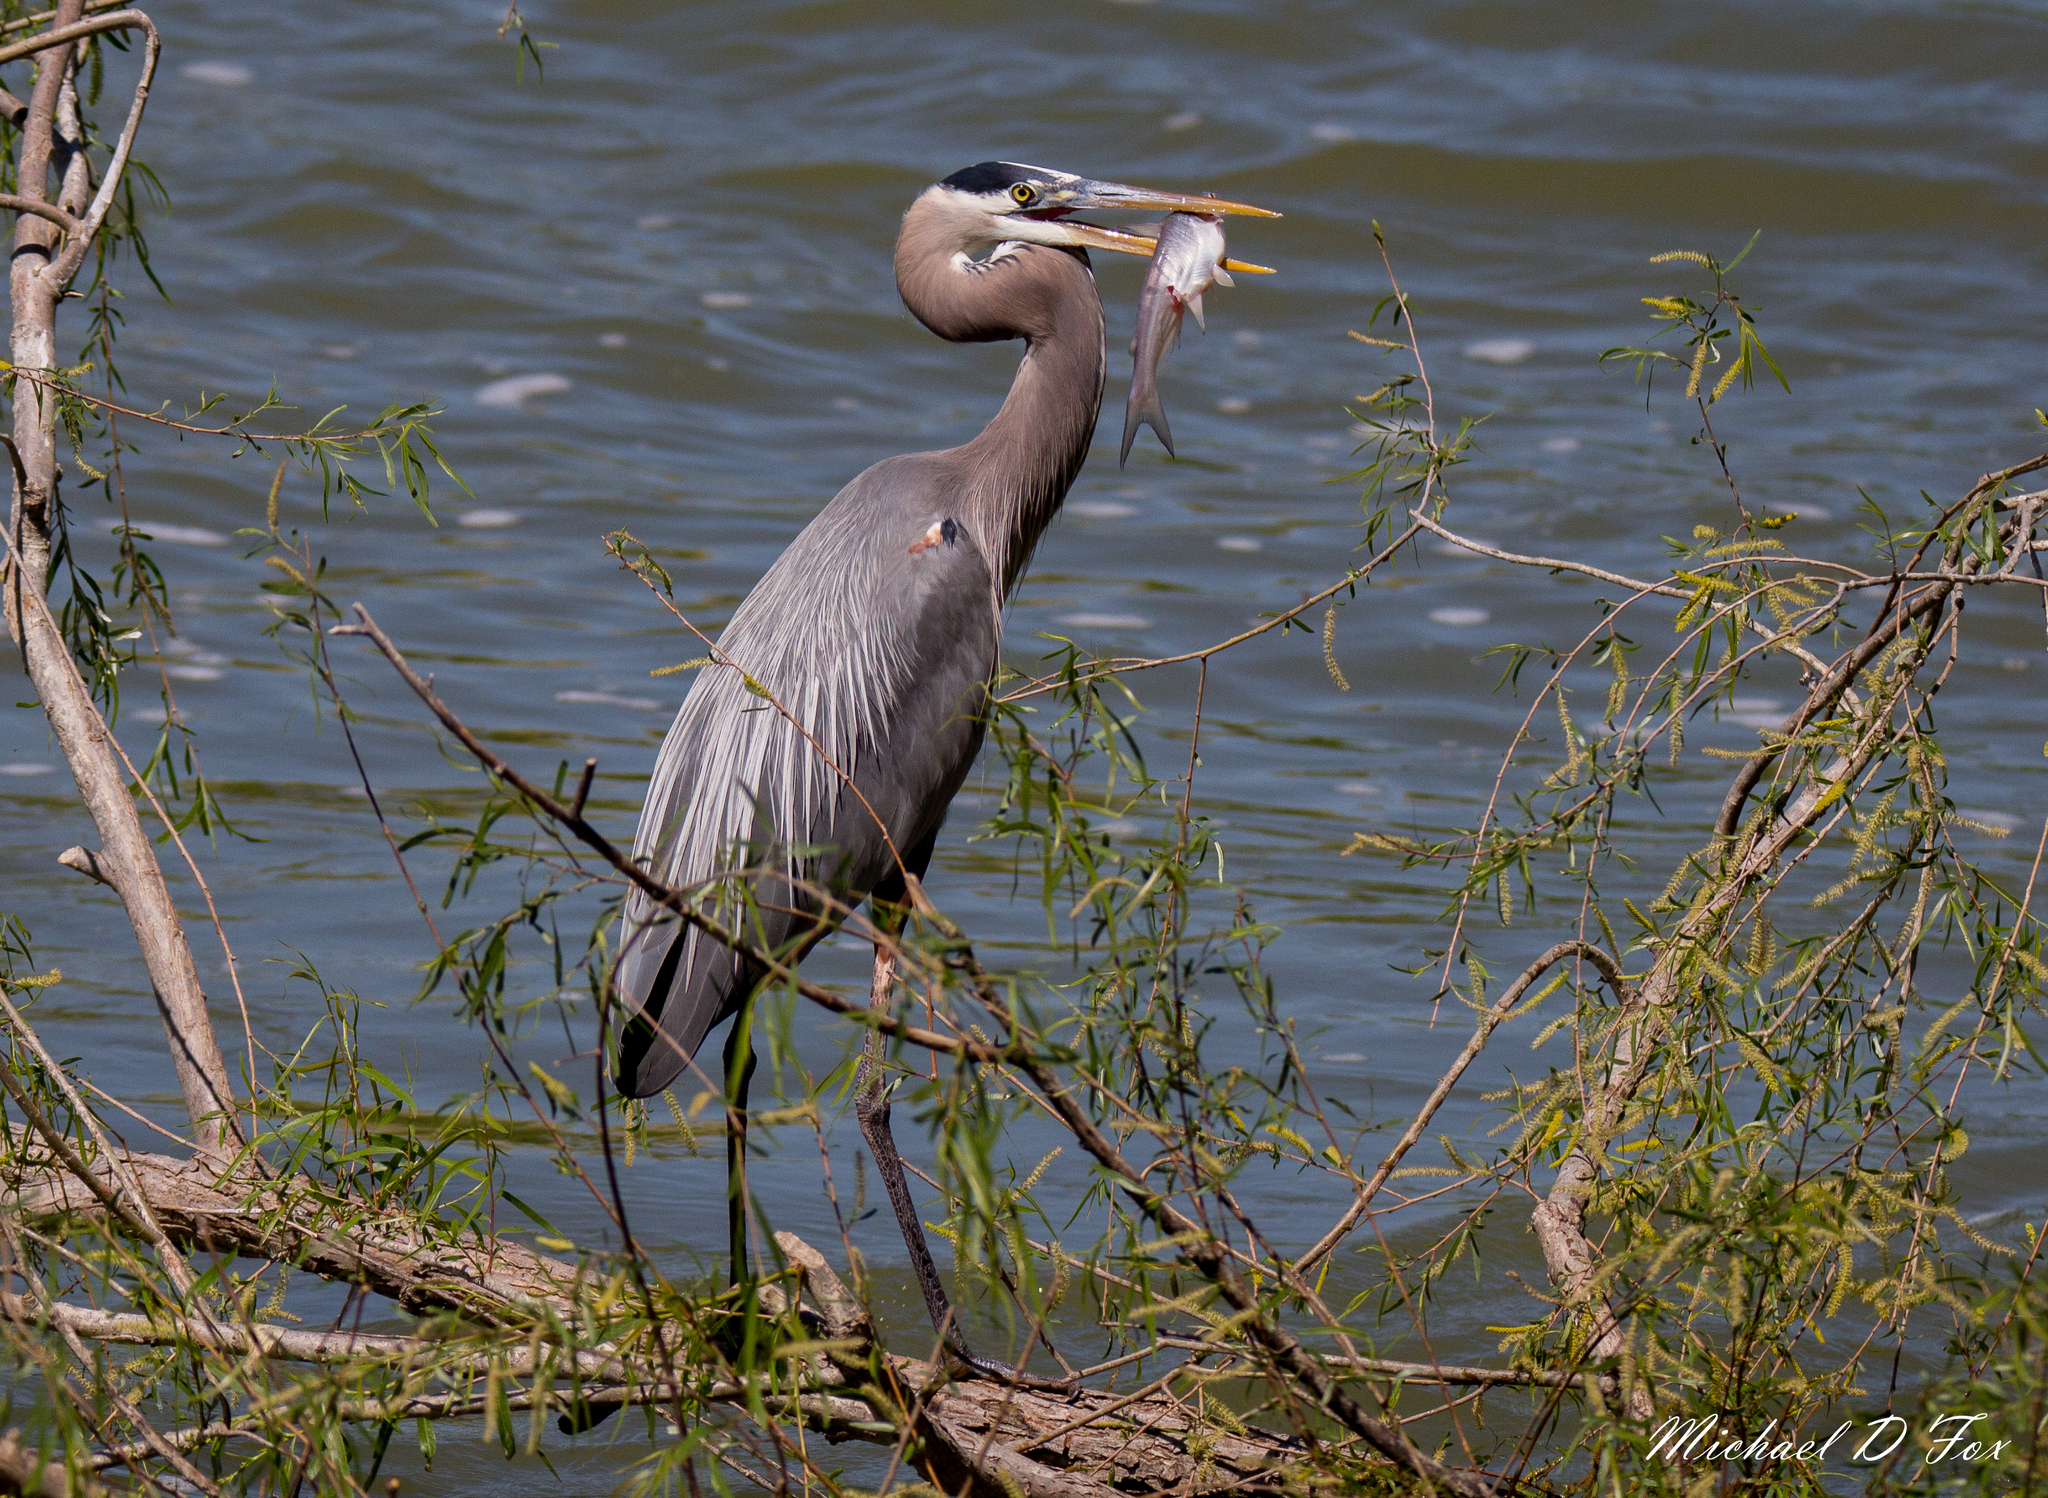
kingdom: Animalia
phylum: Chordata
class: Aves
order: Pelecaniformes
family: Ardeidae
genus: Ardea
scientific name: Ardea herodias
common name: Great blue heron
